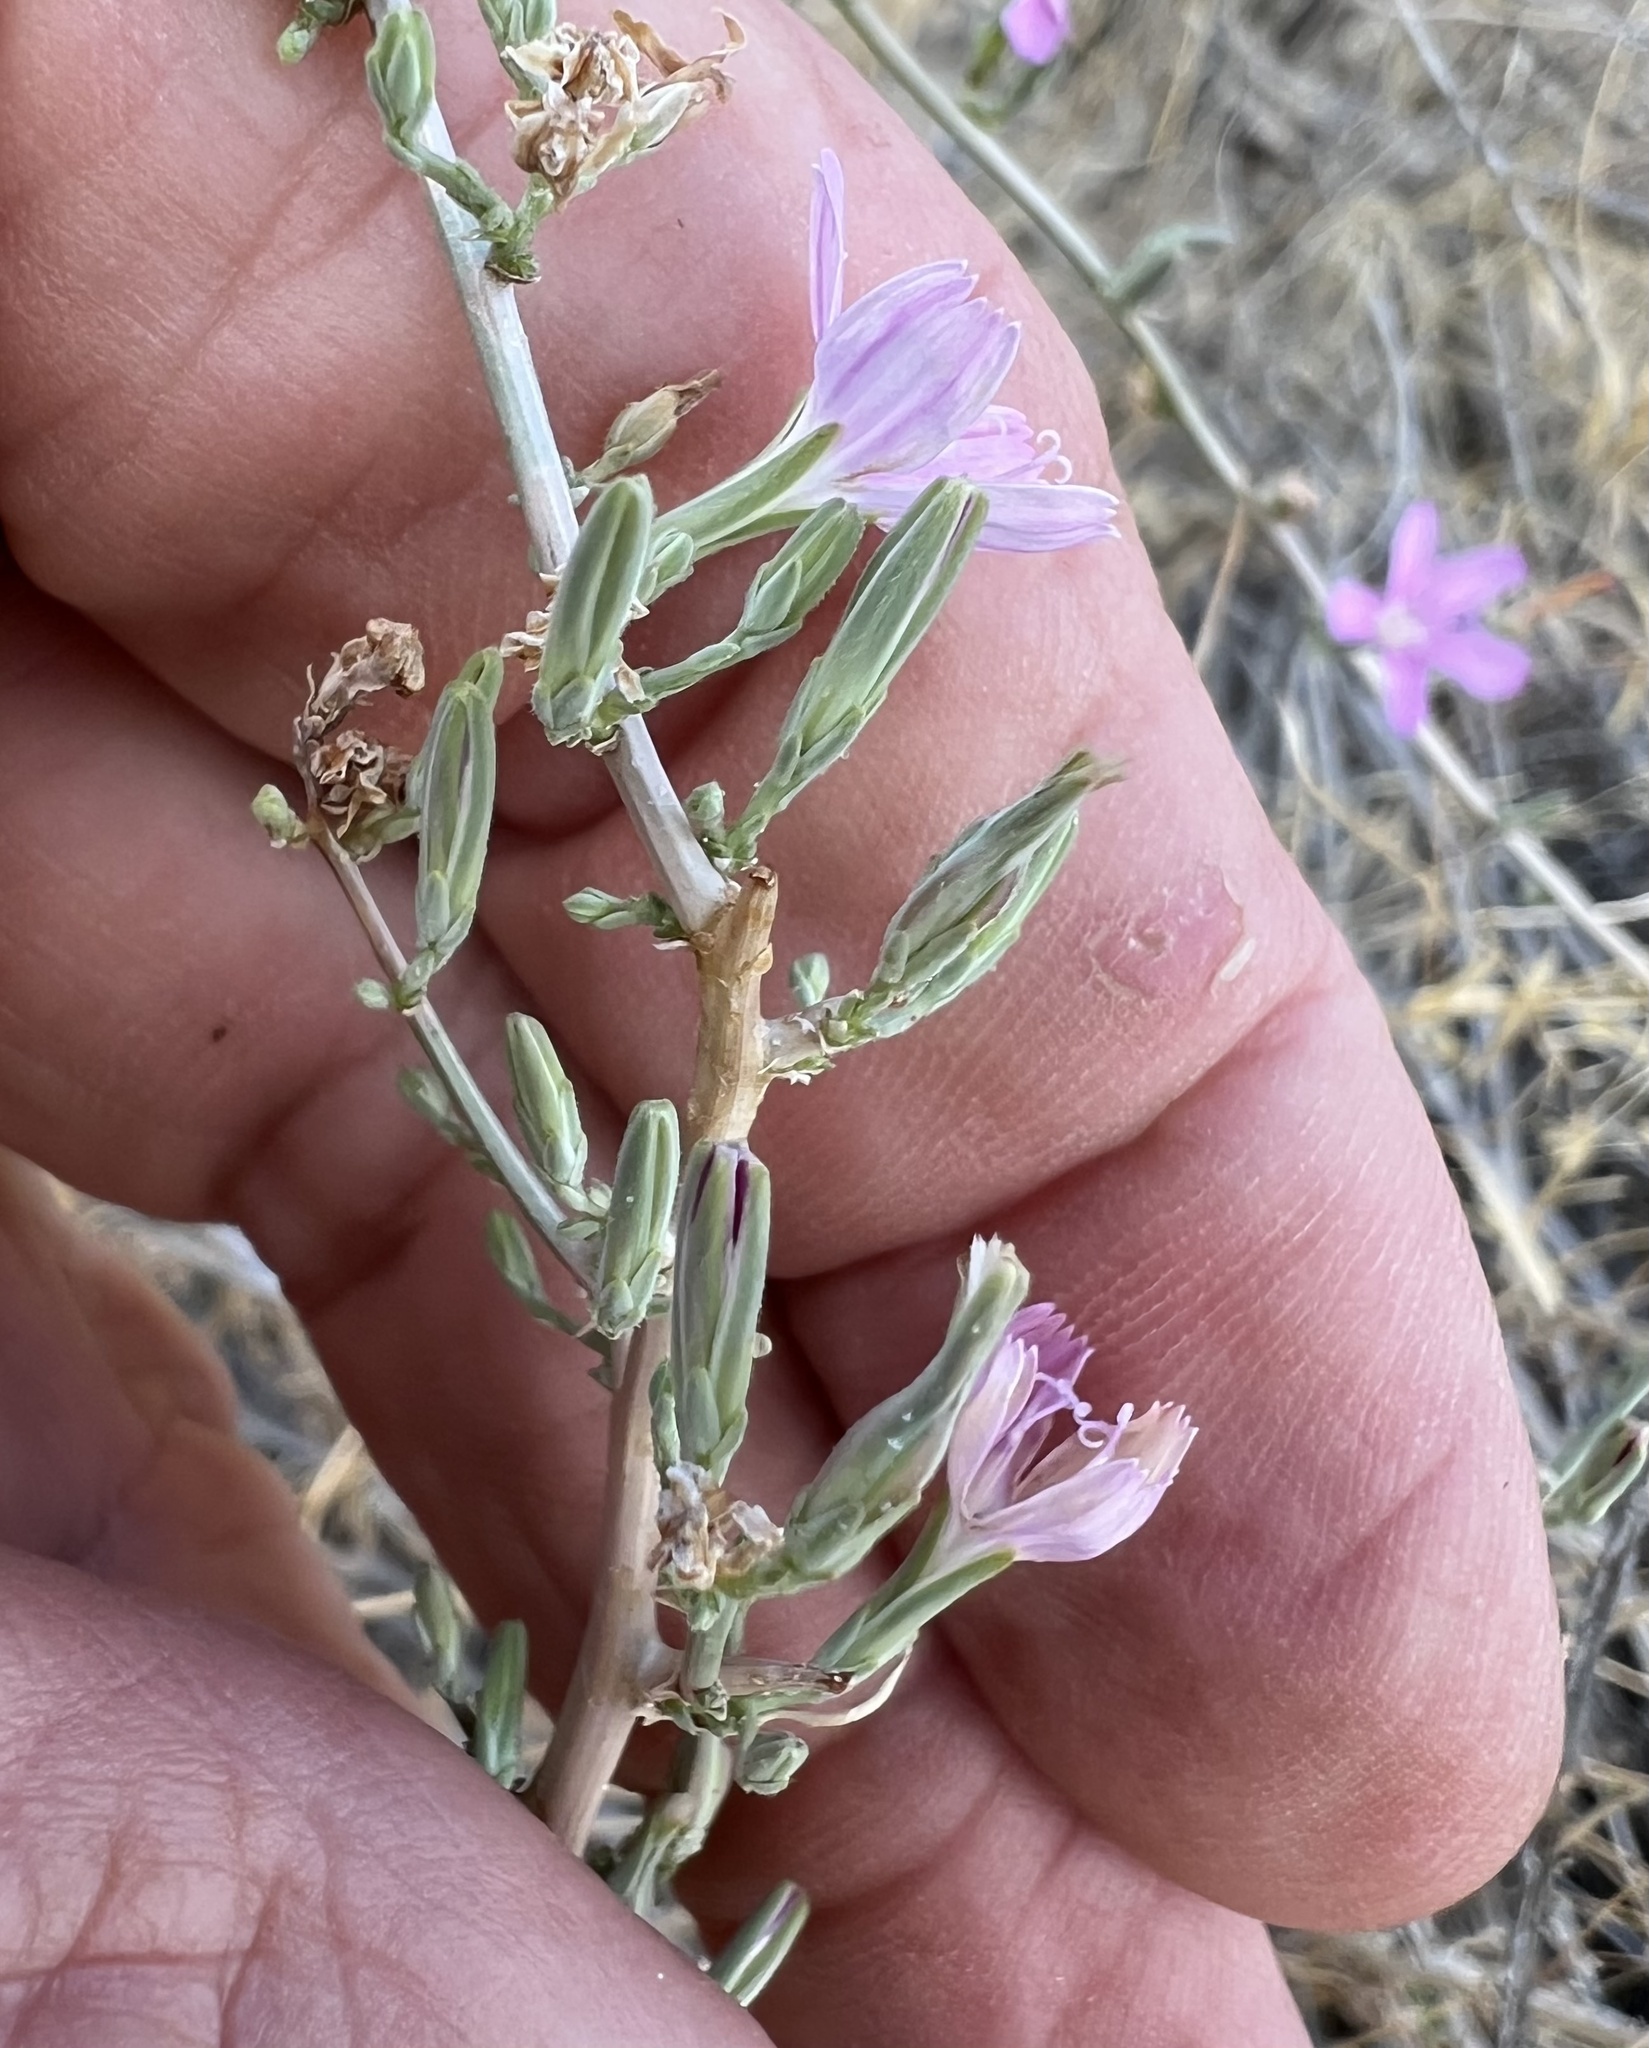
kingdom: Plantae
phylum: Tracheophyta
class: Magnoliopsida
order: Asterales
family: Asteraceae
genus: Stephanomeria
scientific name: Stephanomeria exigua
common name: Small wirelettuce
